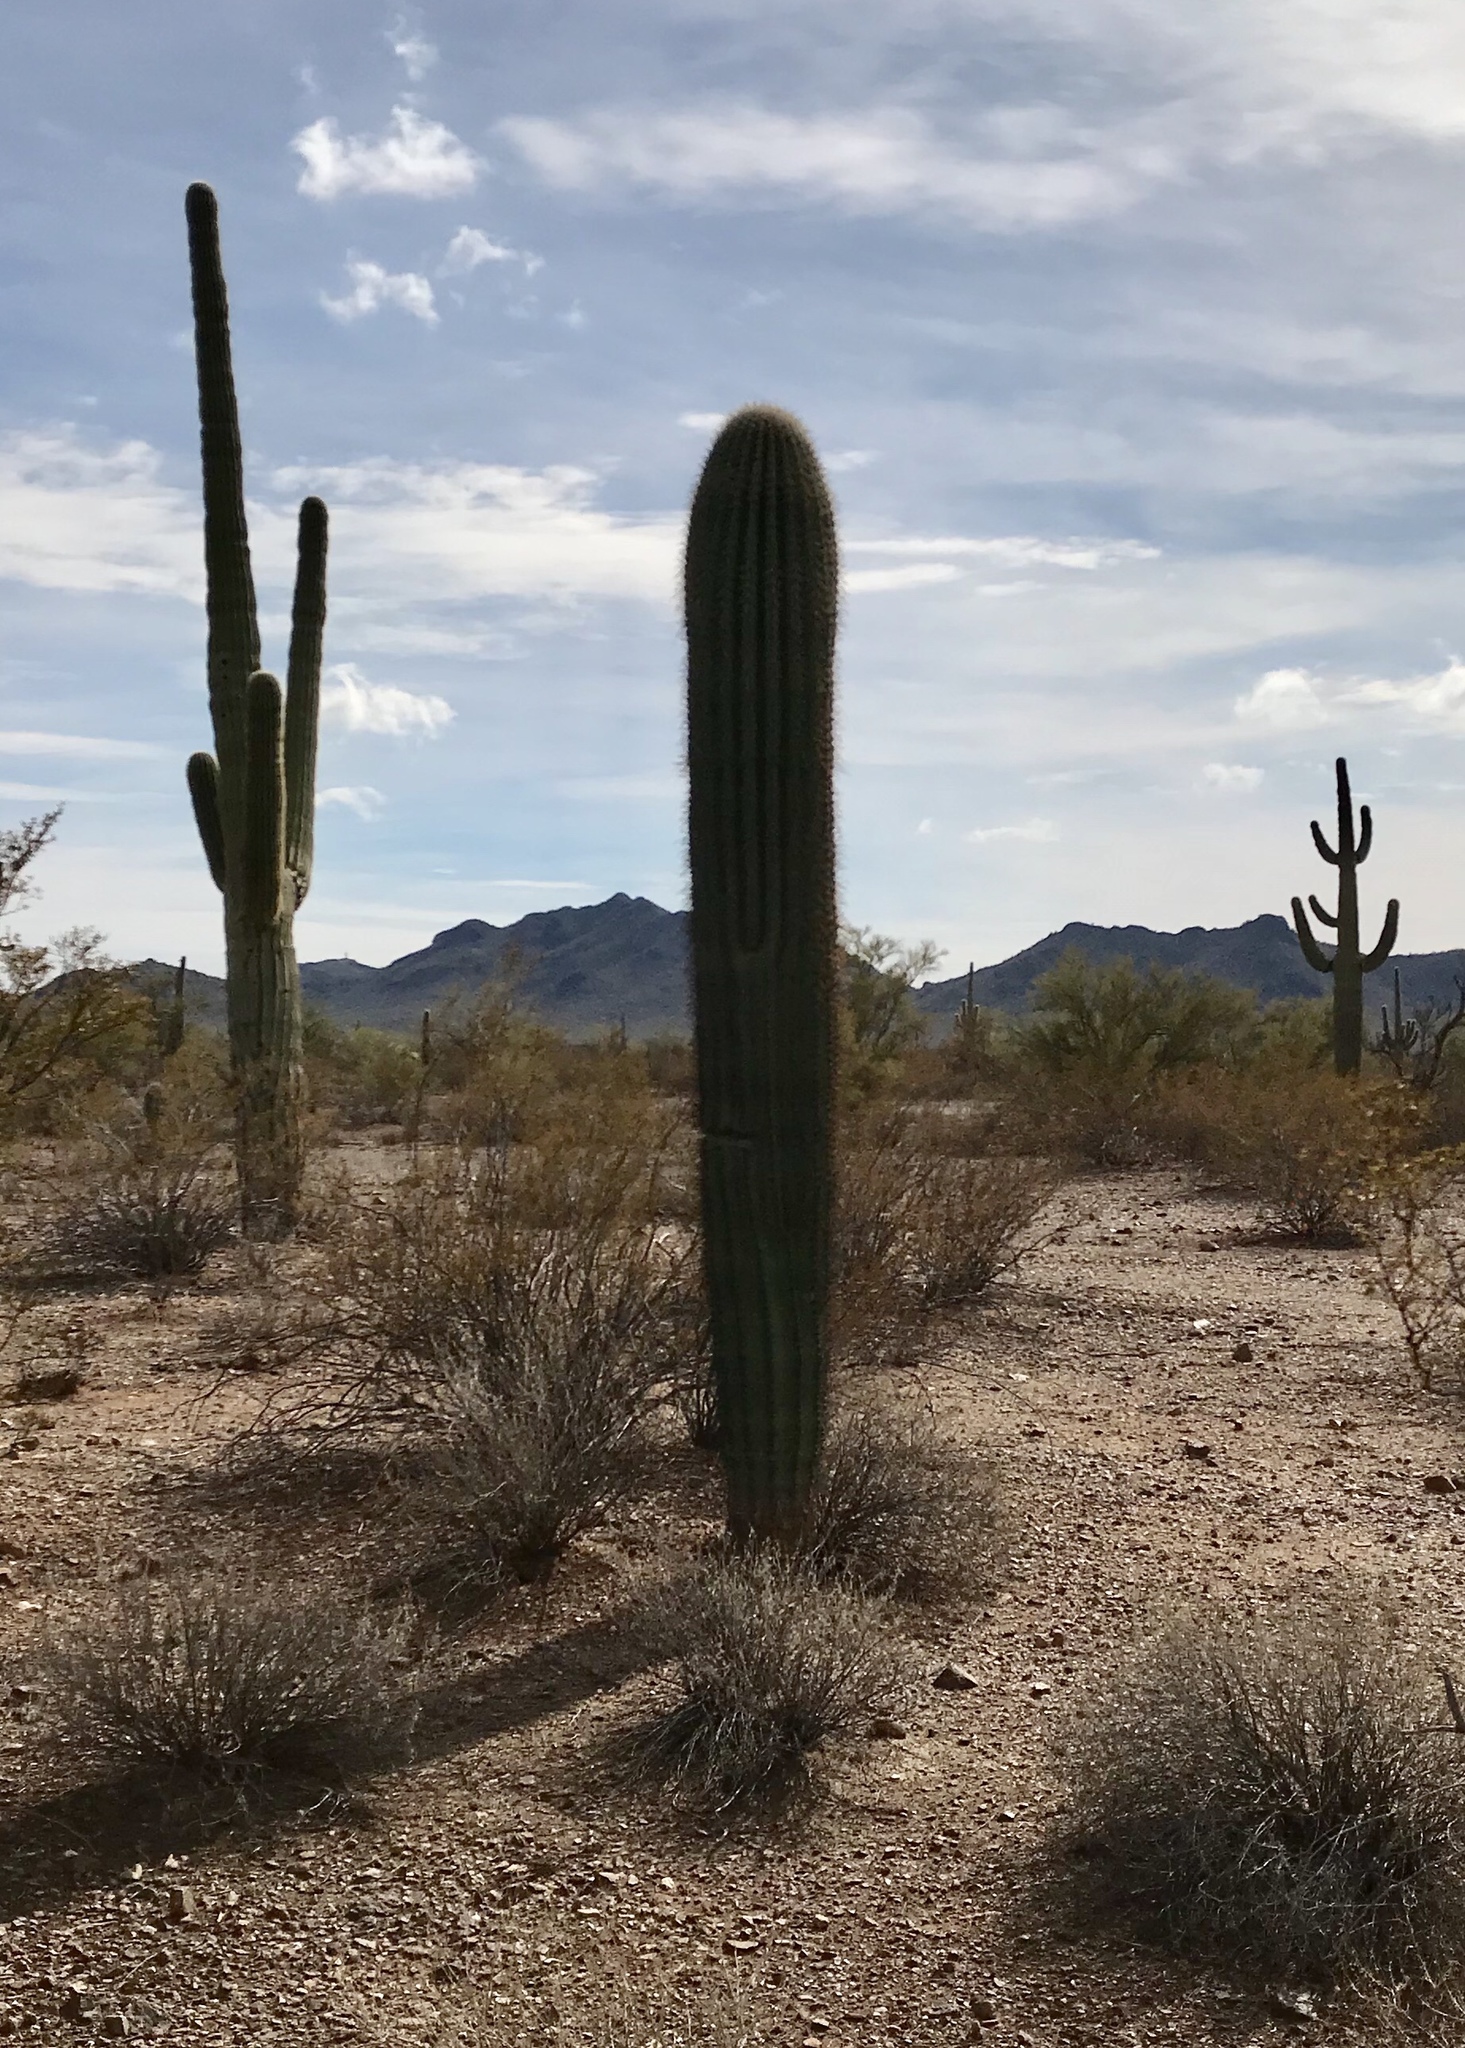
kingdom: Plantae
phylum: Tracheophyta
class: Magnoliopsida
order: Caryophyllales
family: Cactaceae
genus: Carnegiea
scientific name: Carnegiea gigantea
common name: Saguaro
